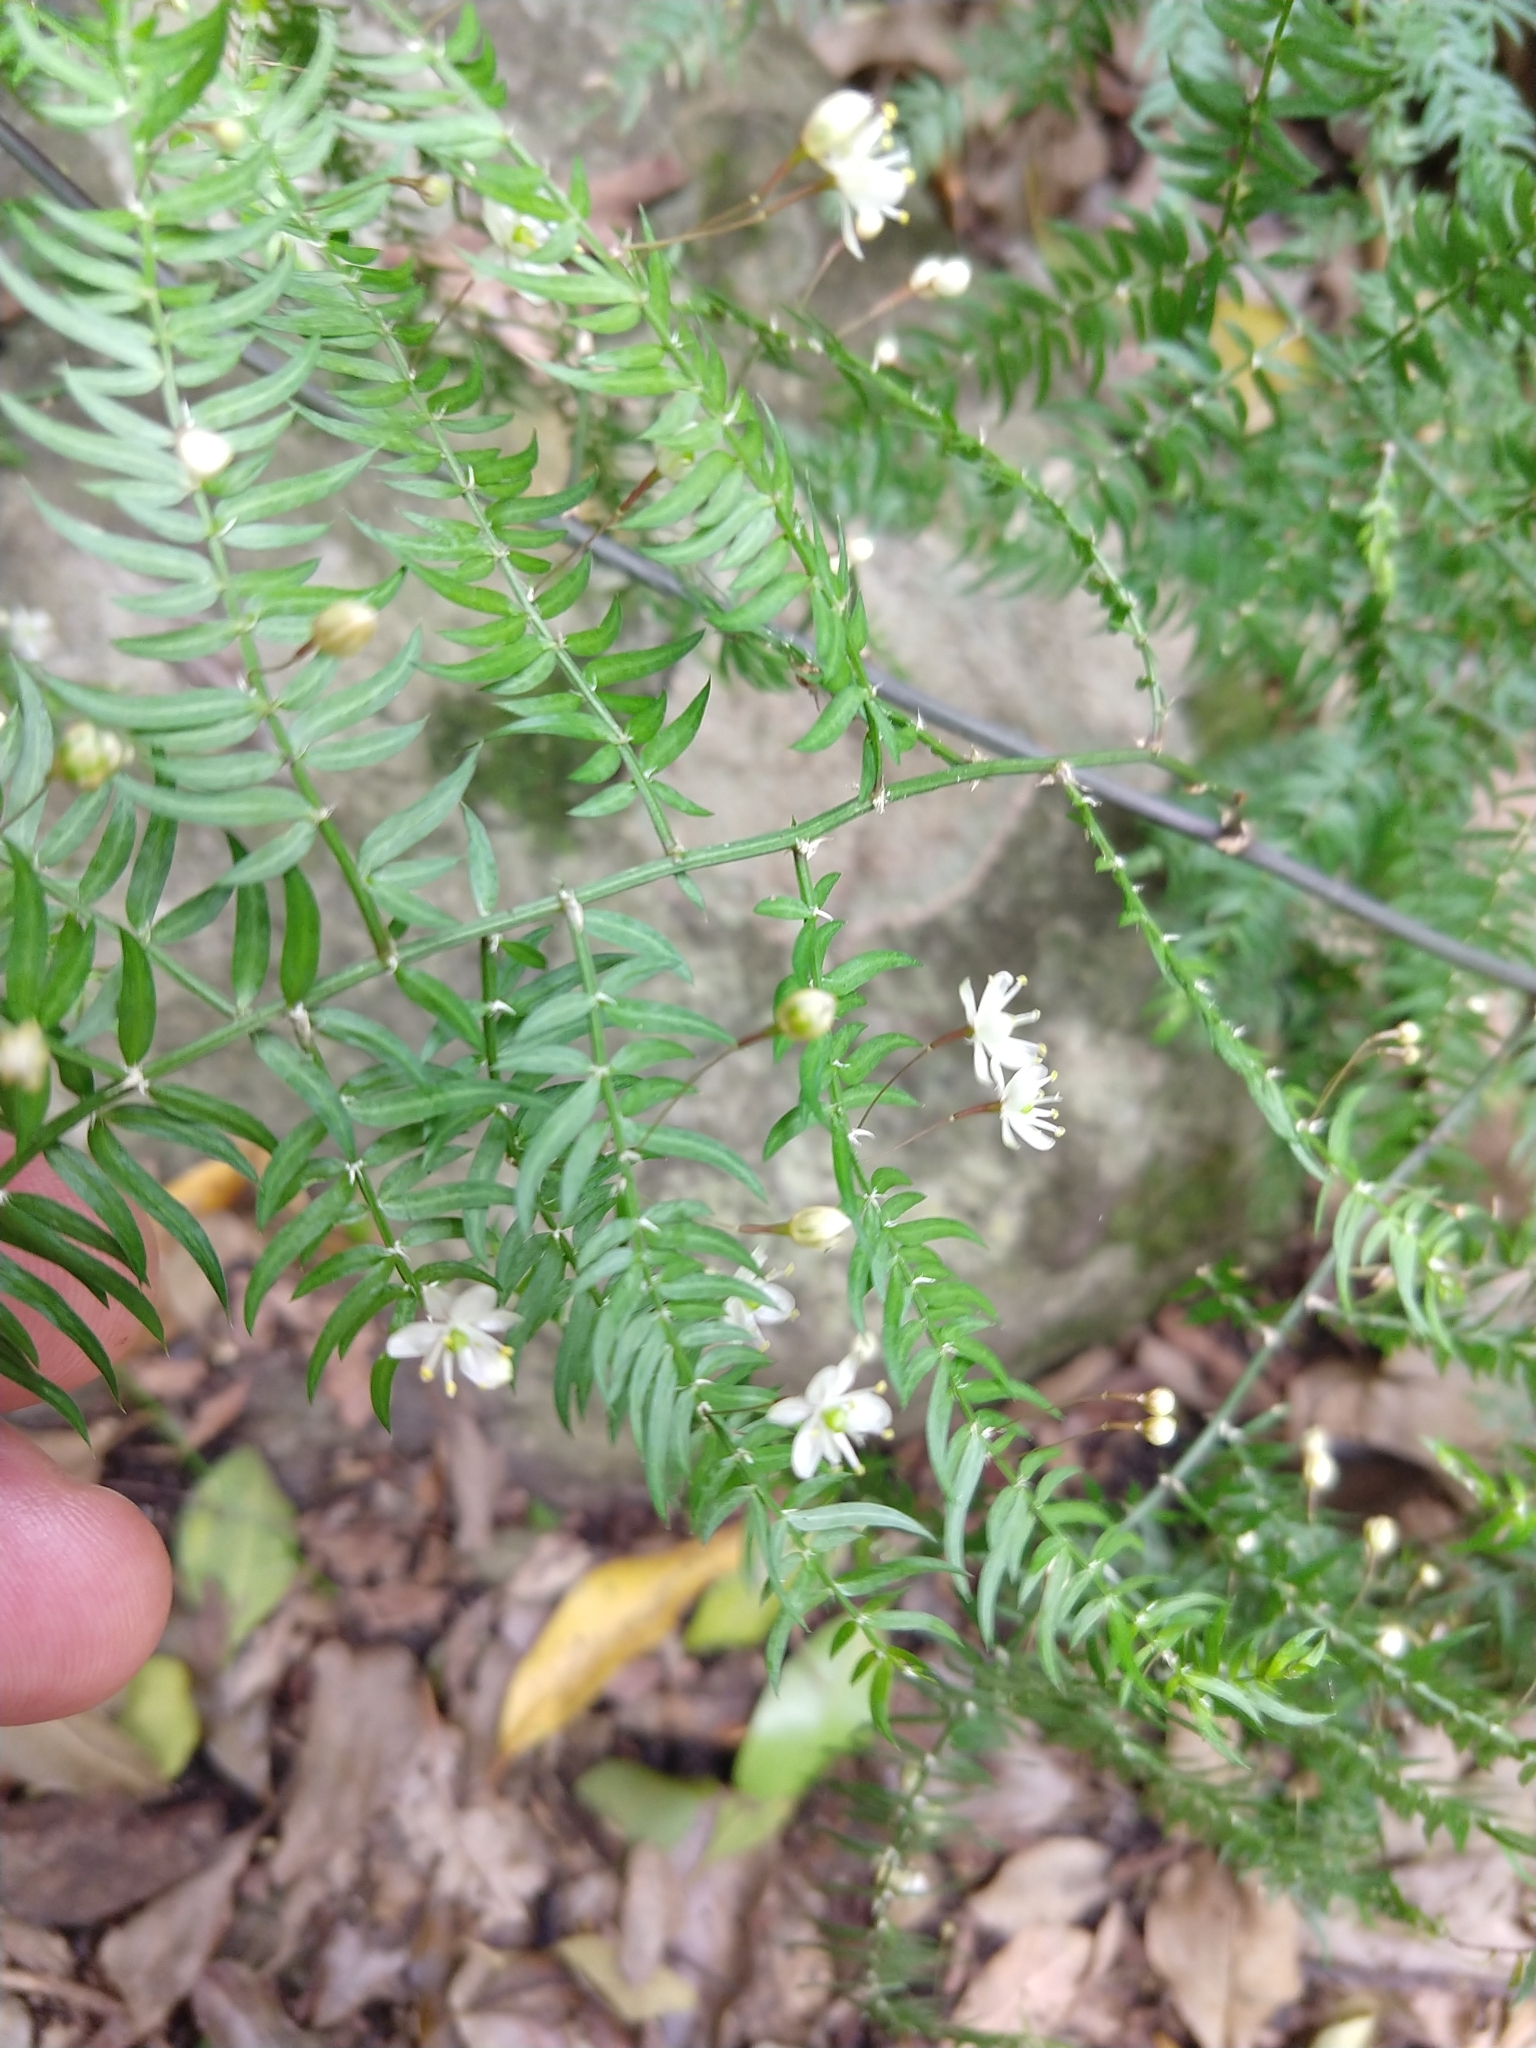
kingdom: Plantae
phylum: Tracheophyta
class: Liliopsida
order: Asparagales
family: Asparagaceae
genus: Asparagus
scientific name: Asparagus scandens
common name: Asparagus-fern
